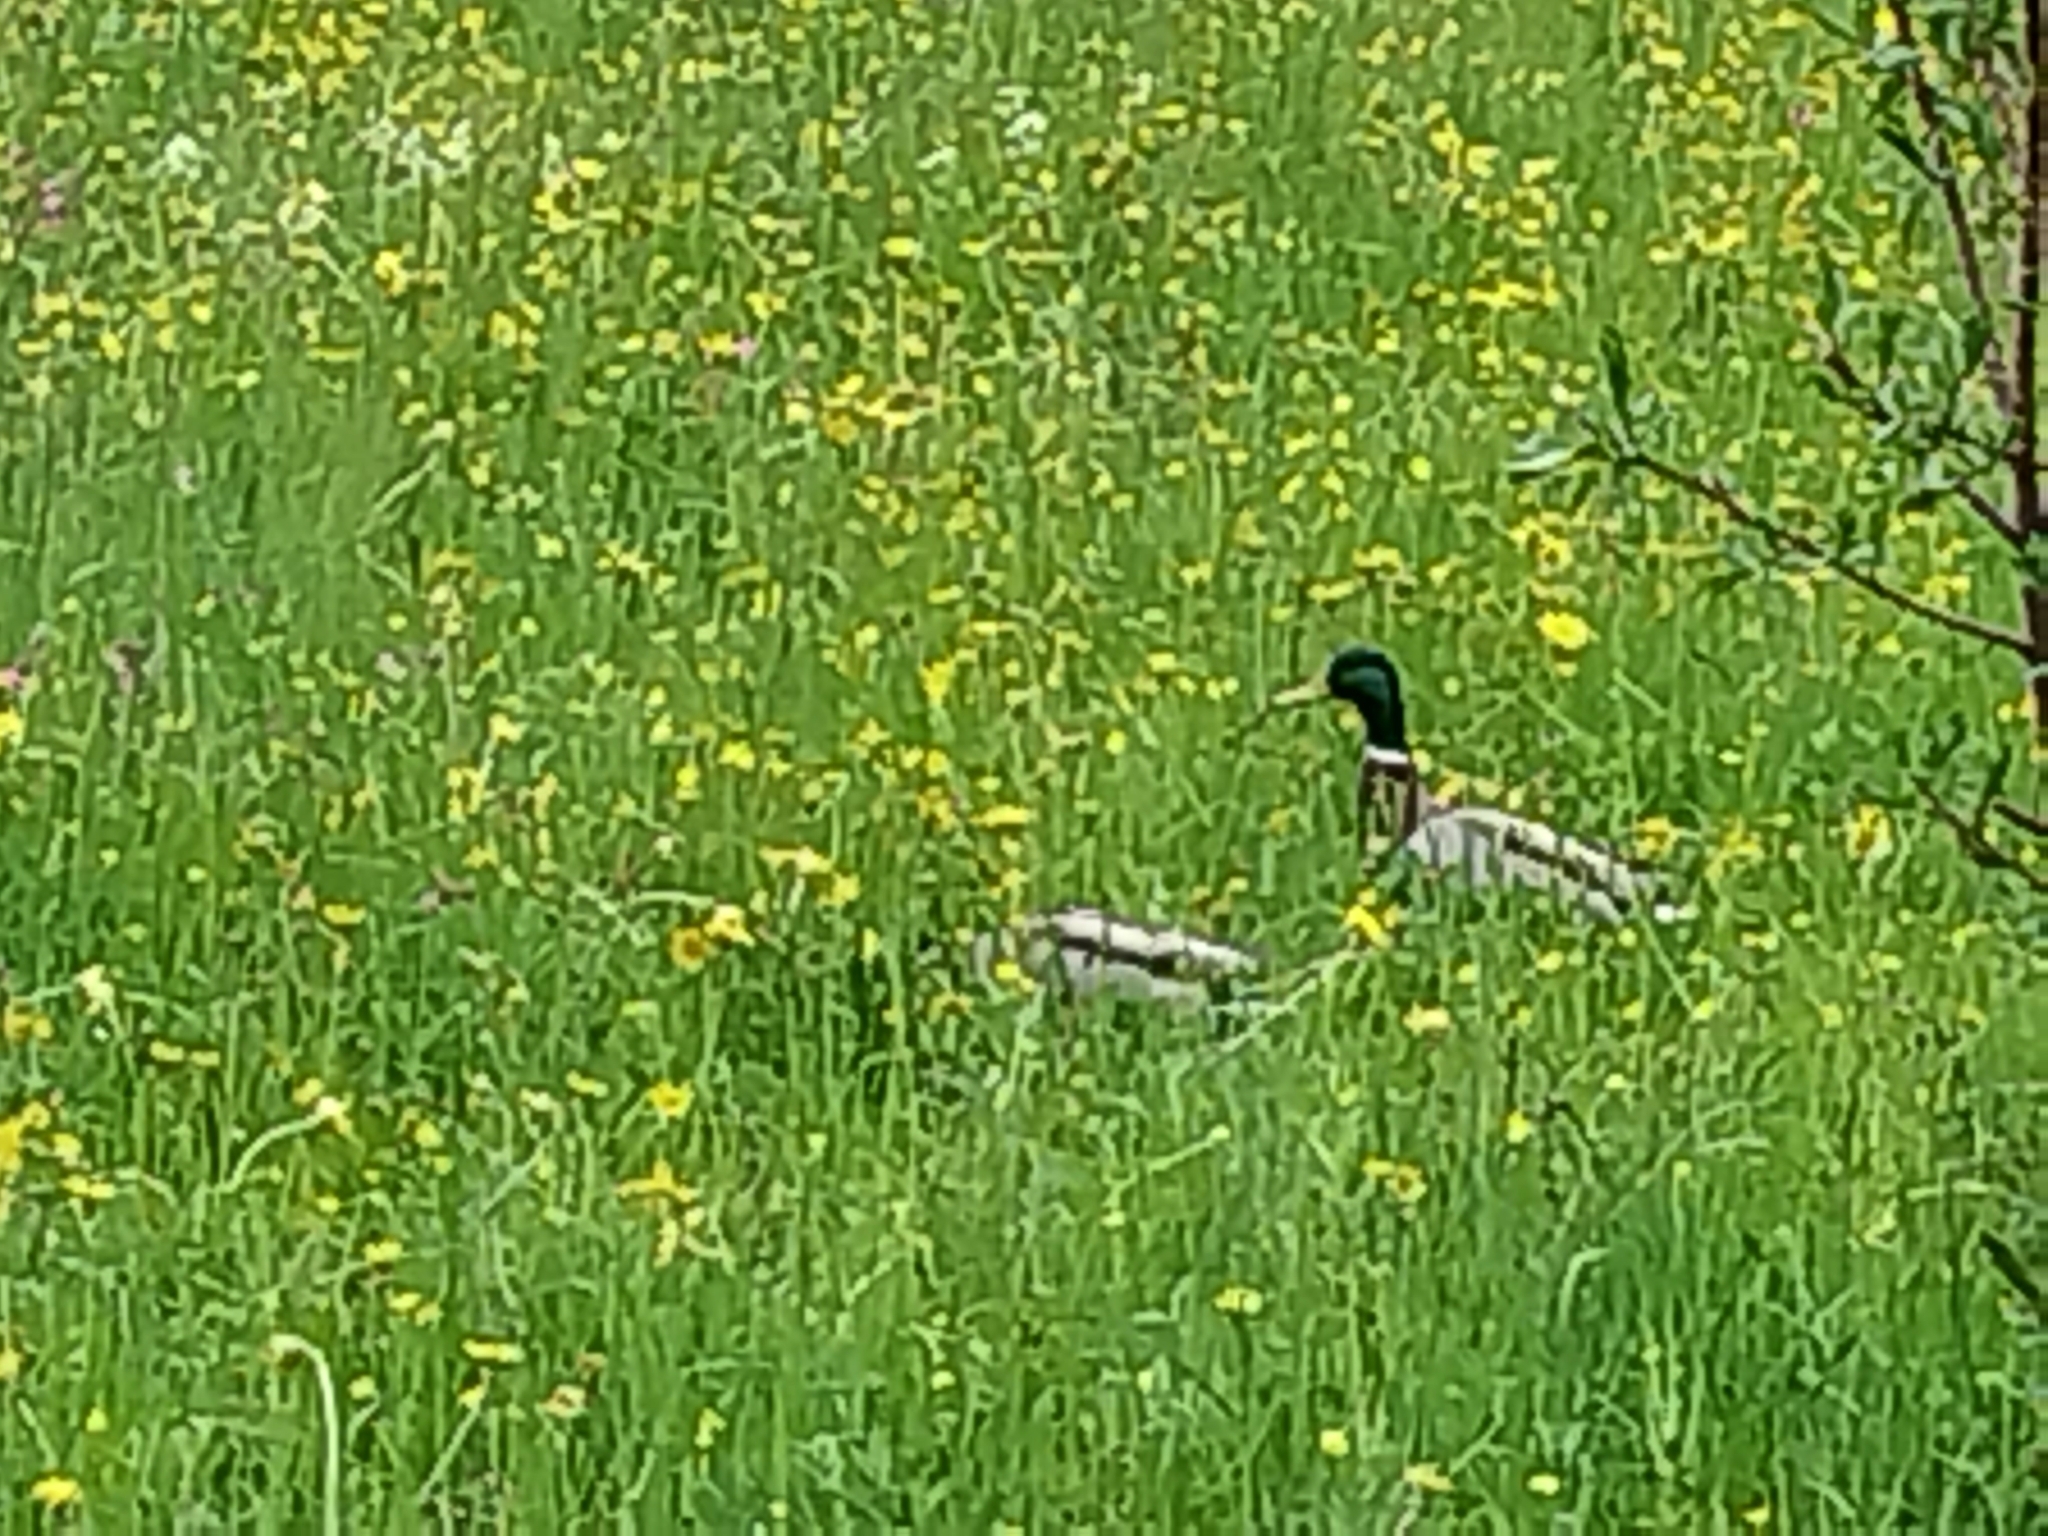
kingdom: Animalia
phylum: Chordata
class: Aves
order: Anseriformes
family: Anatidae
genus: Anas
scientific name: Anas platyrhynchos
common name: Mallard
